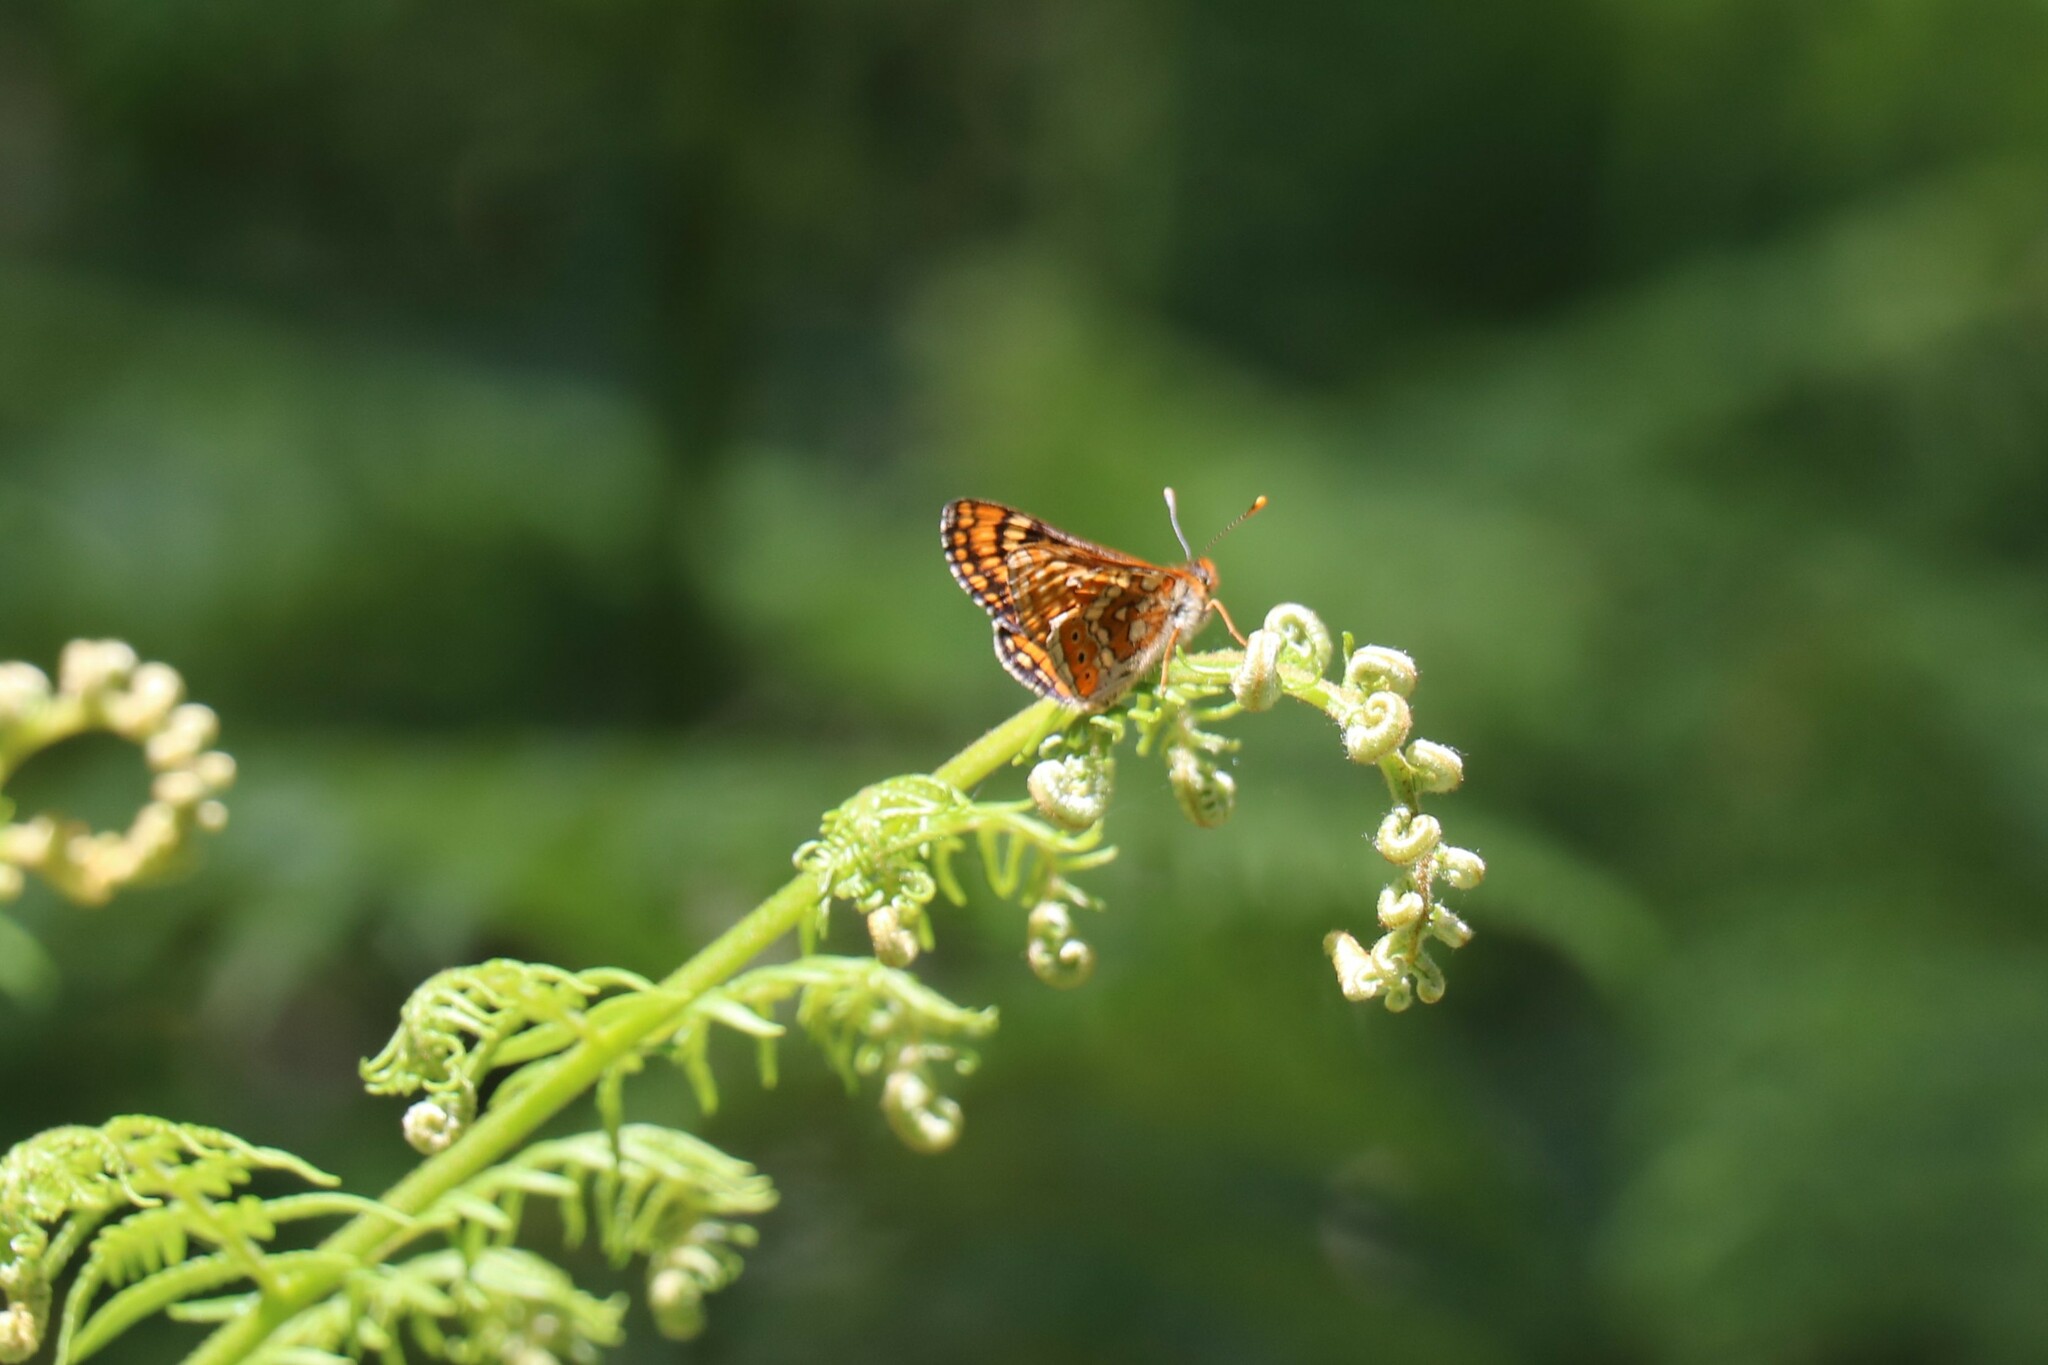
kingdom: Animalia
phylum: Arthropoda
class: Insecta
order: Lepidoptera
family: Nymphalidae
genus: Euphydryas
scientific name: Euphydryas aurinia
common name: Marsh fritillary
